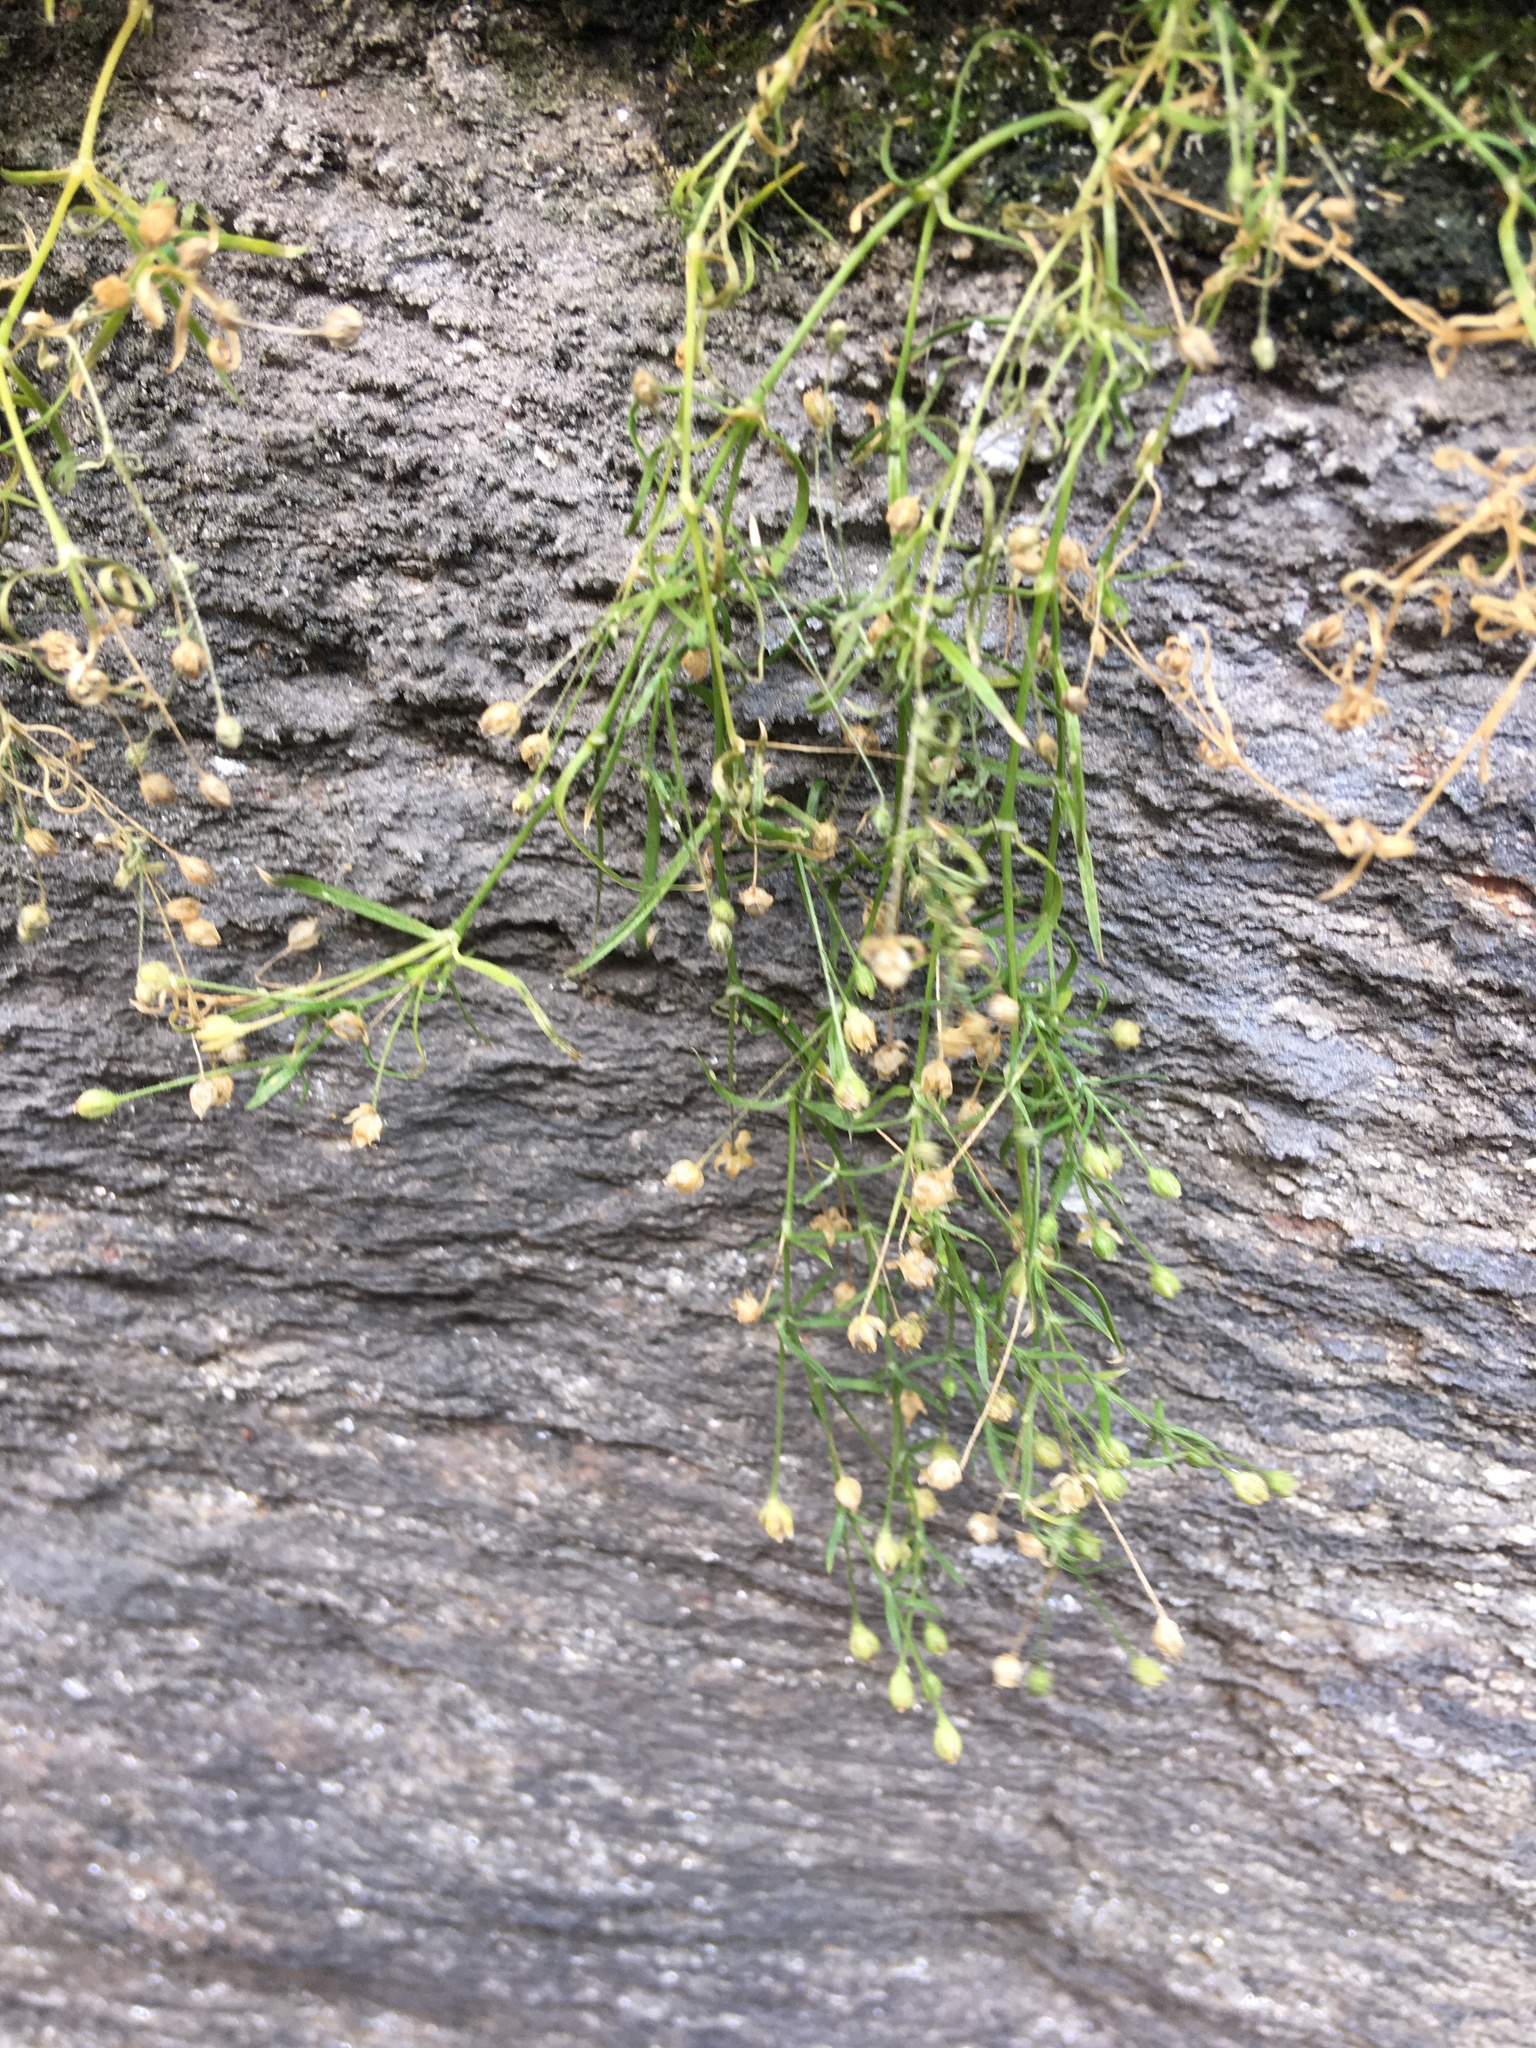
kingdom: Plantae
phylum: Tracheophyta
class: Magnoliopsida
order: Caryophyllales
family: Caryophyllaceae
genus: Sagina
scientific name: Sagina japonica
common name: Japanese pearlwort
